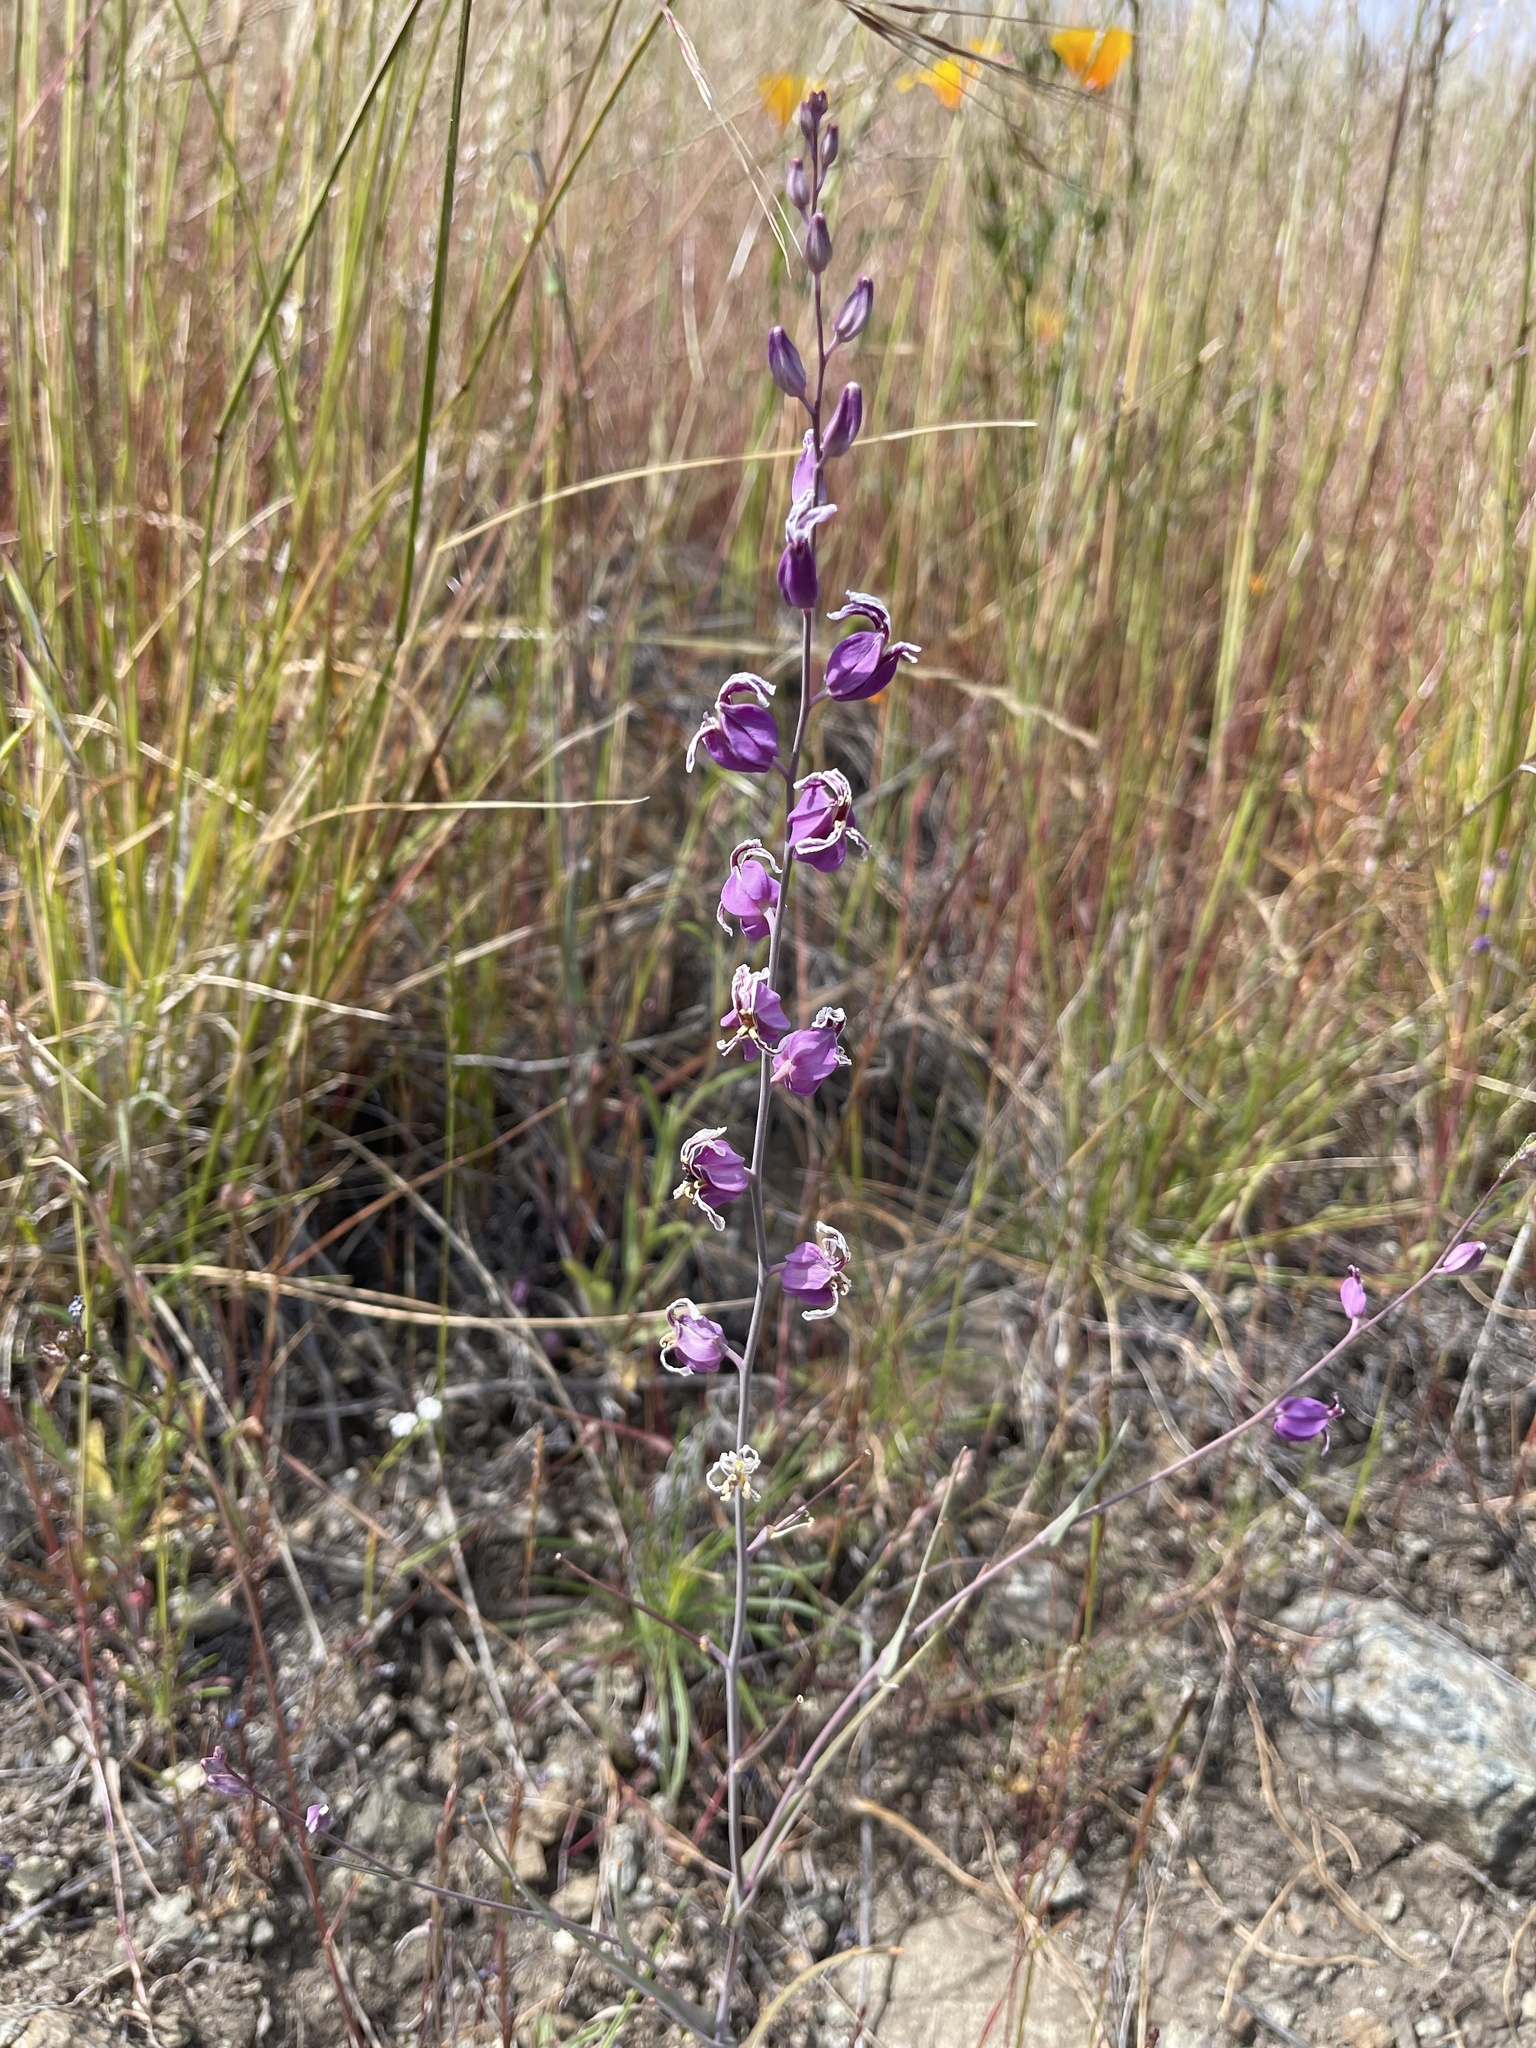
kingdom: Plantae
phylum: Tracheophyta
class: Magnoliopsida
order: Brassicales
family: Brassicaceae
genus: Streptanthus
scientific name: Streptanthus glandulosus
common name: Jewel-flower
